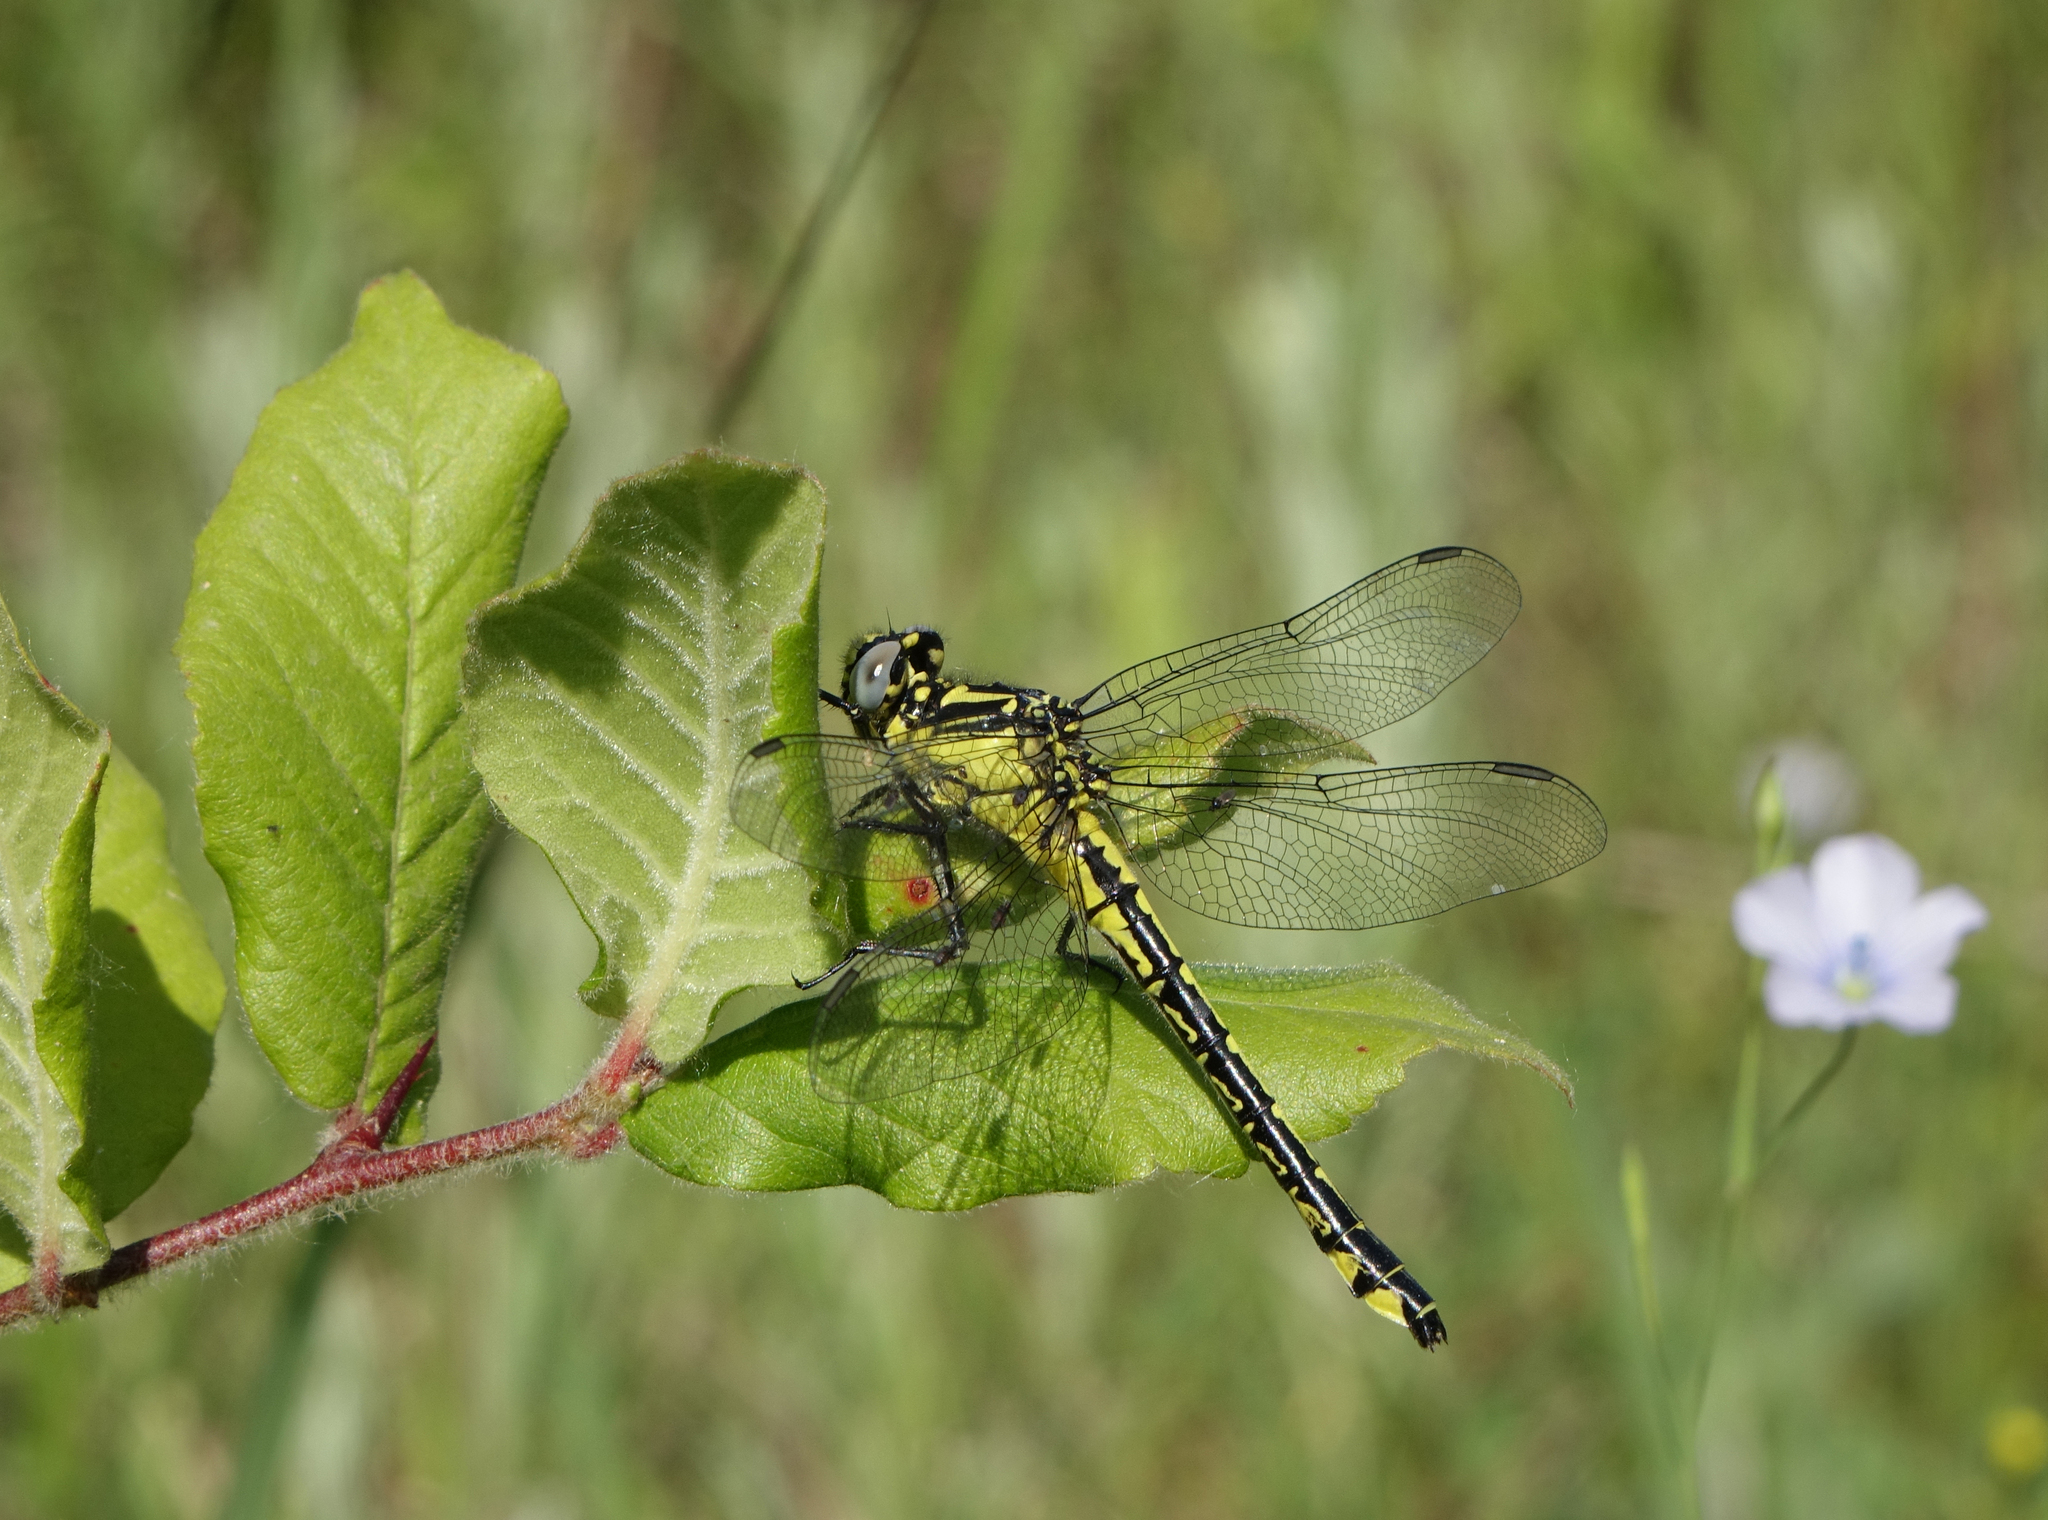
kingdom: Animalia
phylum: Arthropoda
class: Insecta
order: Odonata
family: Gomphidae
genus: Gomphus
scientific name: Gomphus schneiderii
